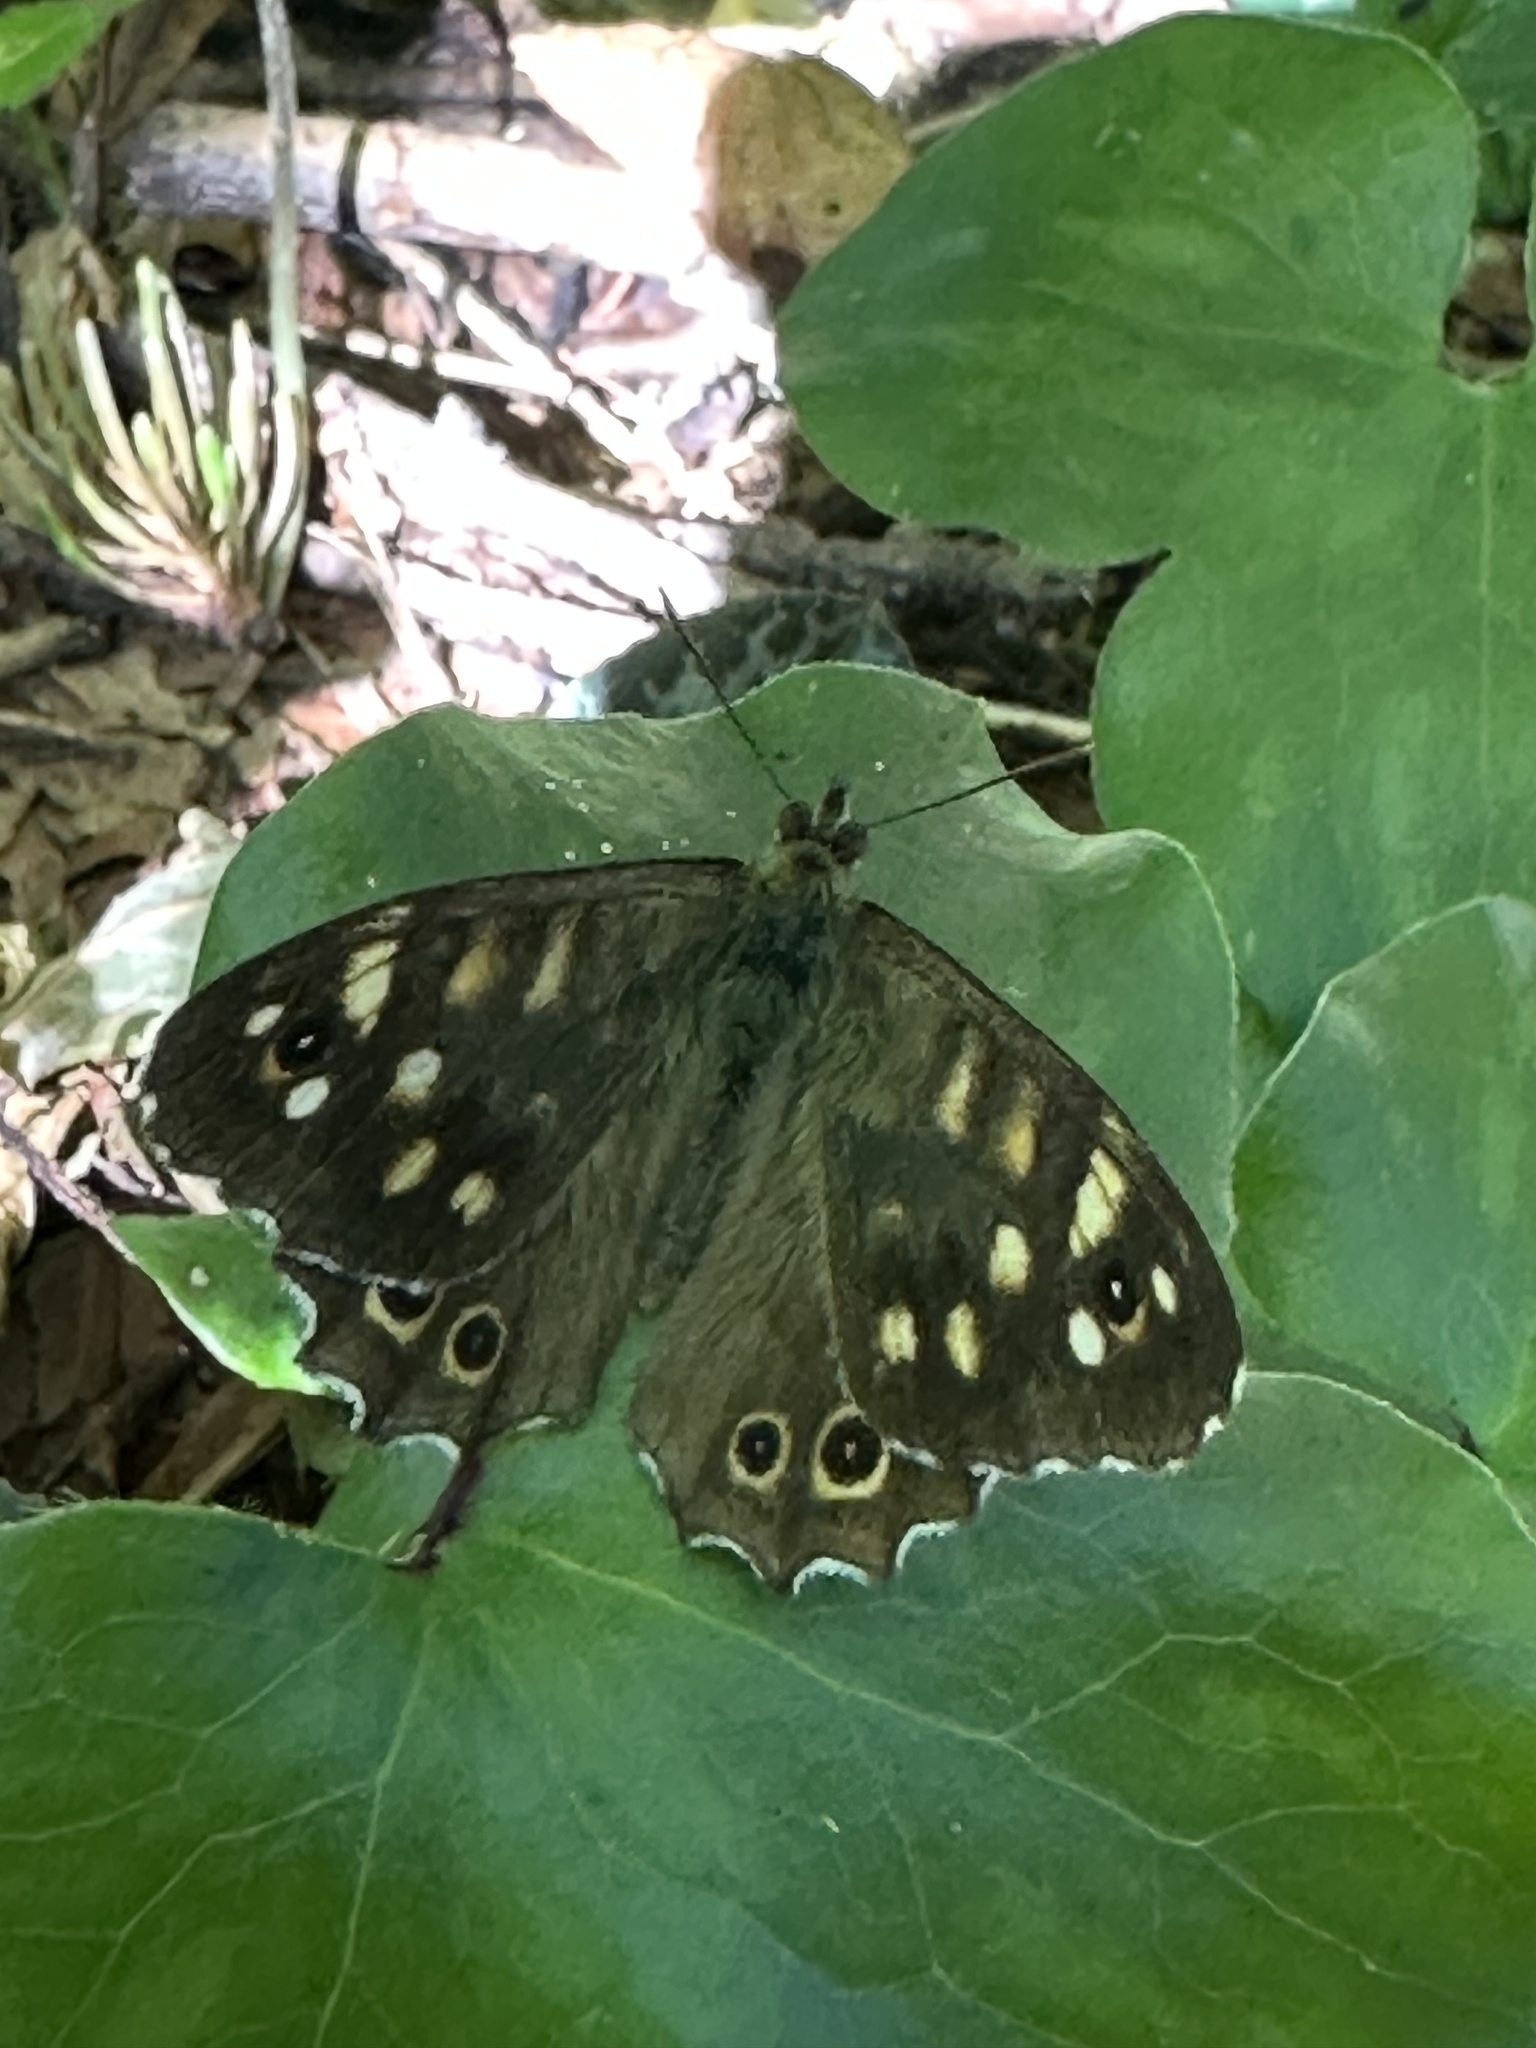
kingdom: Animalia
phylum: Arthropoda
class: Insecta
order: Lepidoptera
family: Nymphalidae
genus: Pararge
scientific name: Pararge aegeria
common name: Speckled wood
